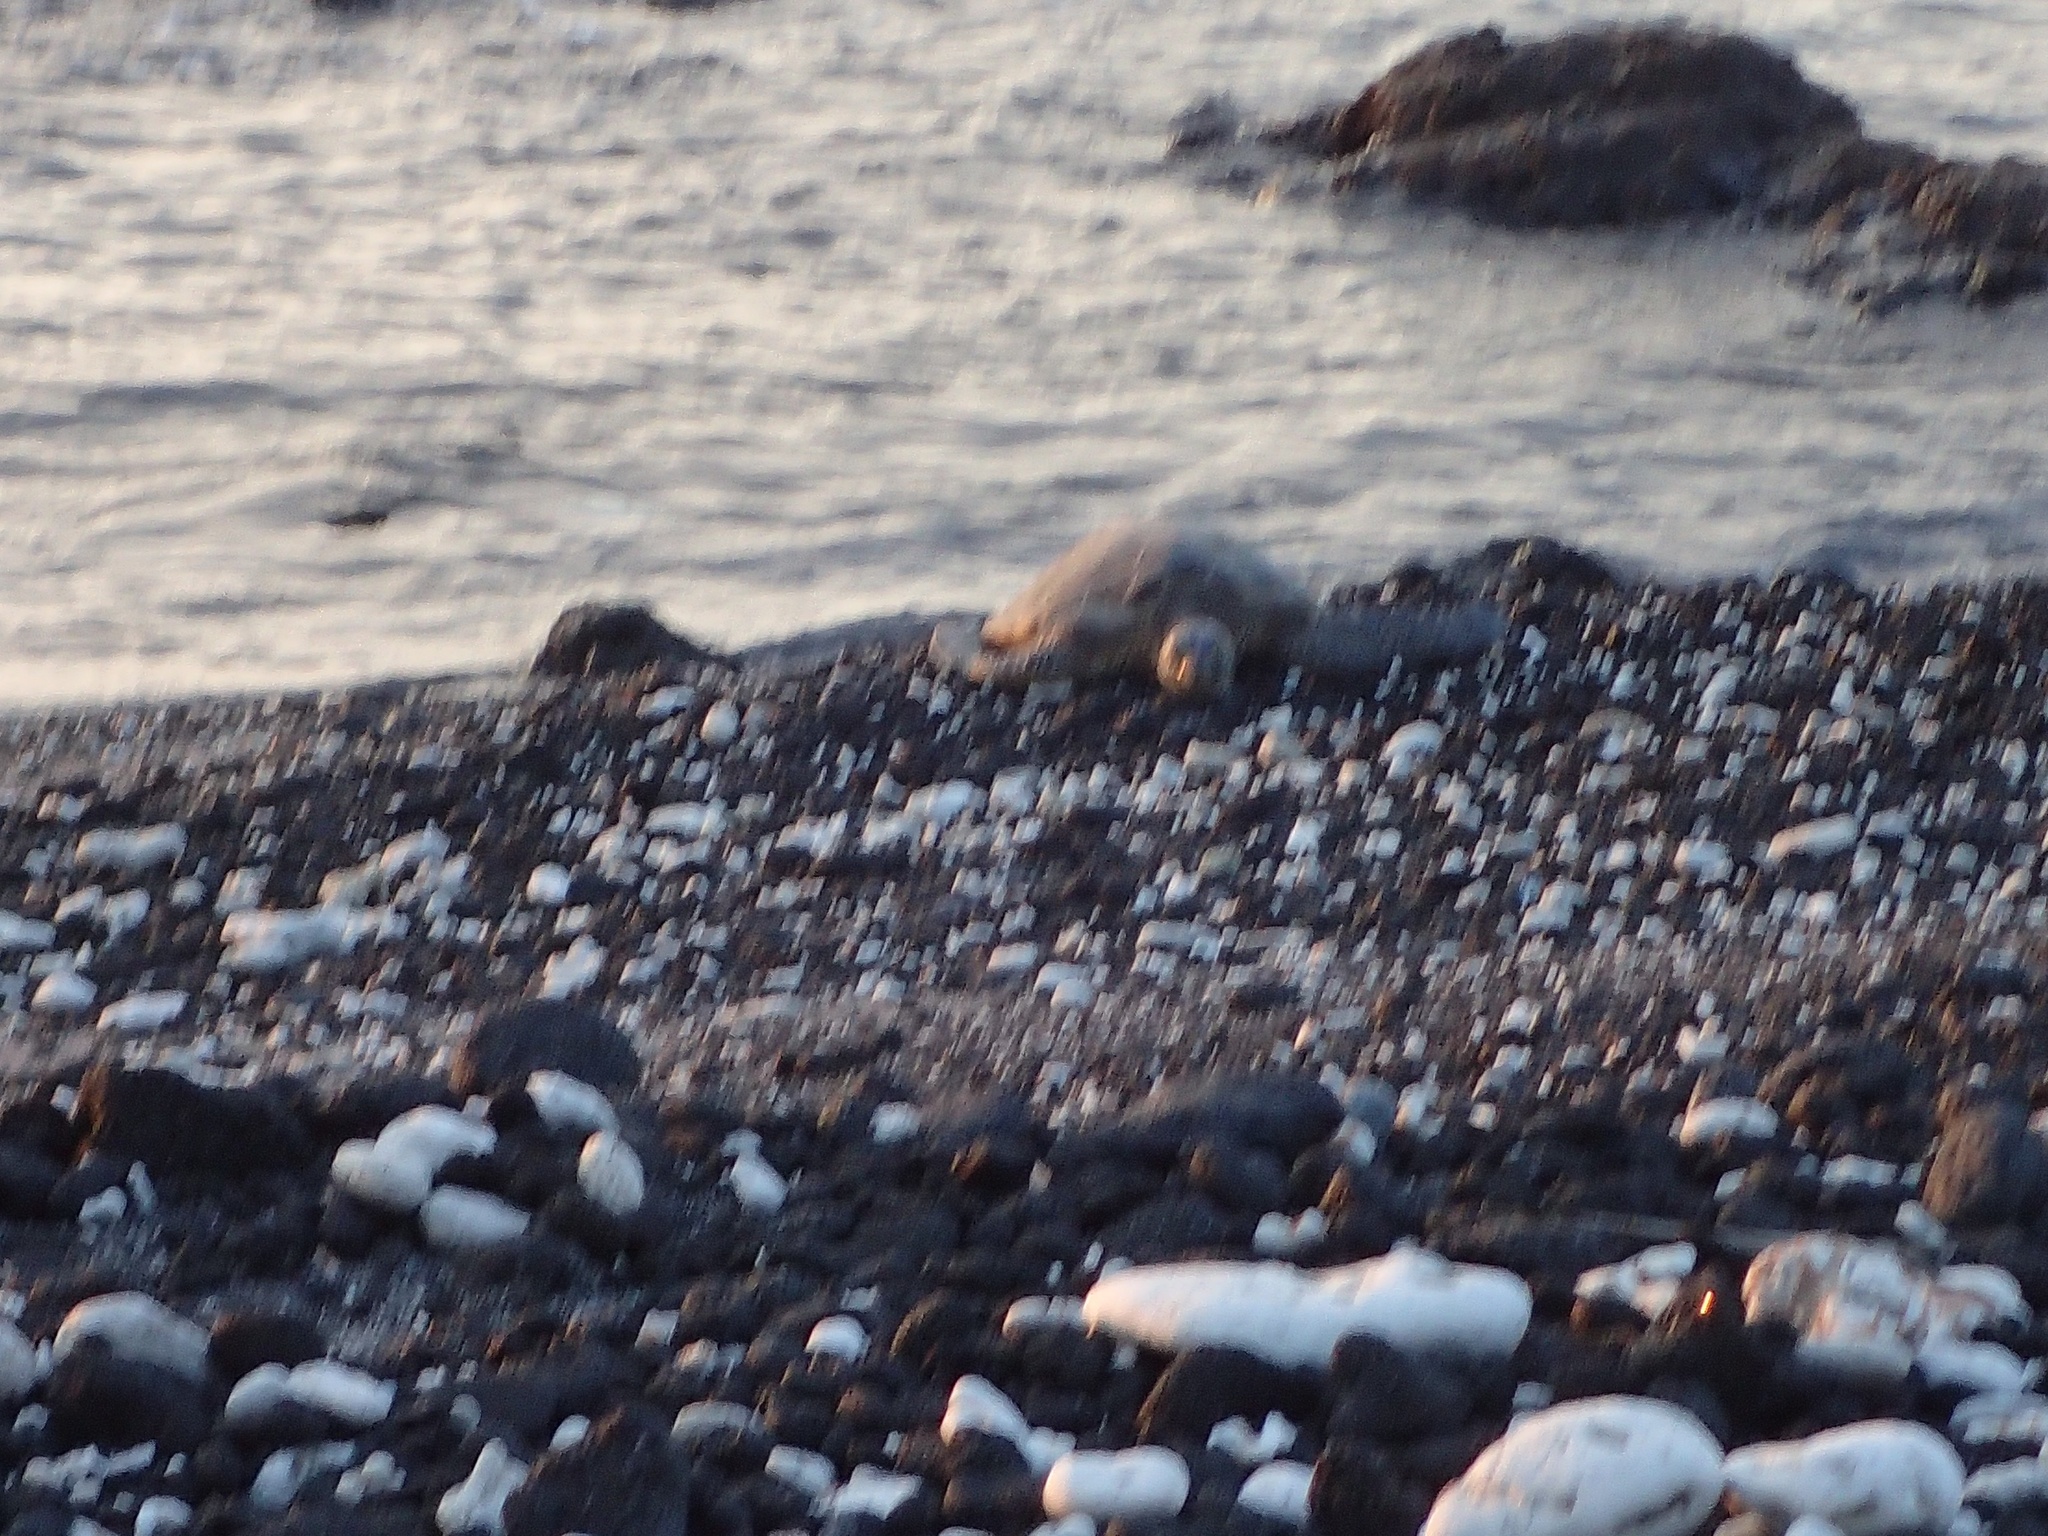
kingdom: Animalia
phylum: Chordata
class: Testudines
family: Cheloniidae
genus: Chelonia
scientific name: Chelonia mydas
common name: Green turtle
